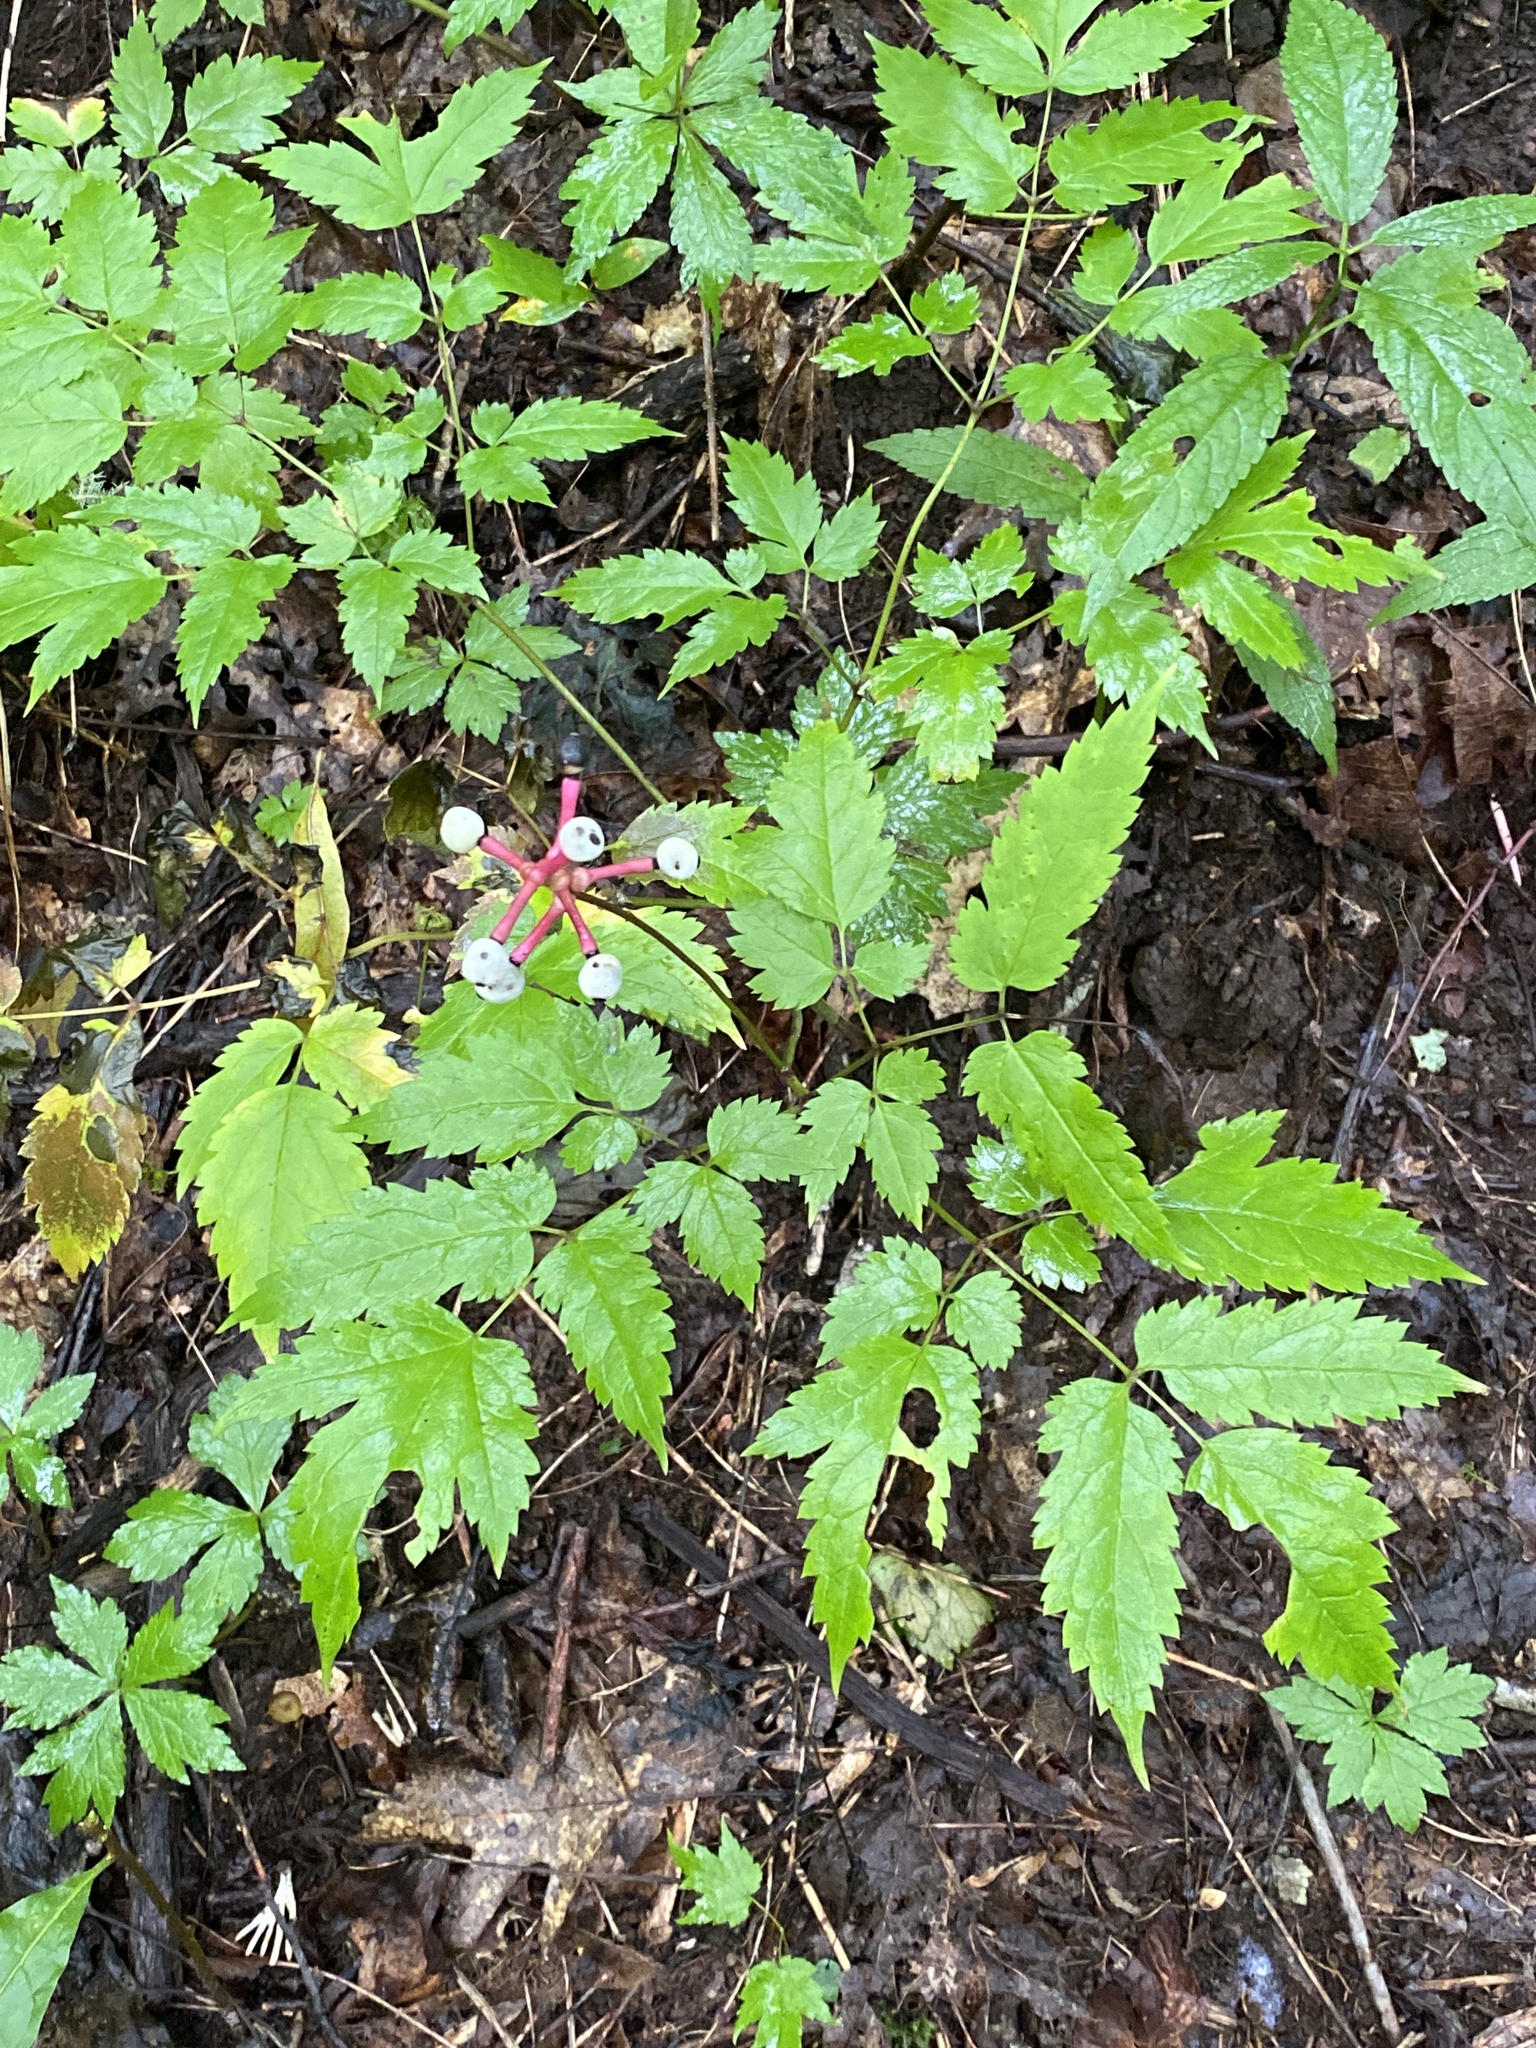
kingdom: Plantae
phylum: Tracheophyta
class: Magnoliopsida
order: Ranunculales
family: Ranunculaceae
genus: Actaea
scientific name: Actaea pachypoda
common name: Doll's-eyes
